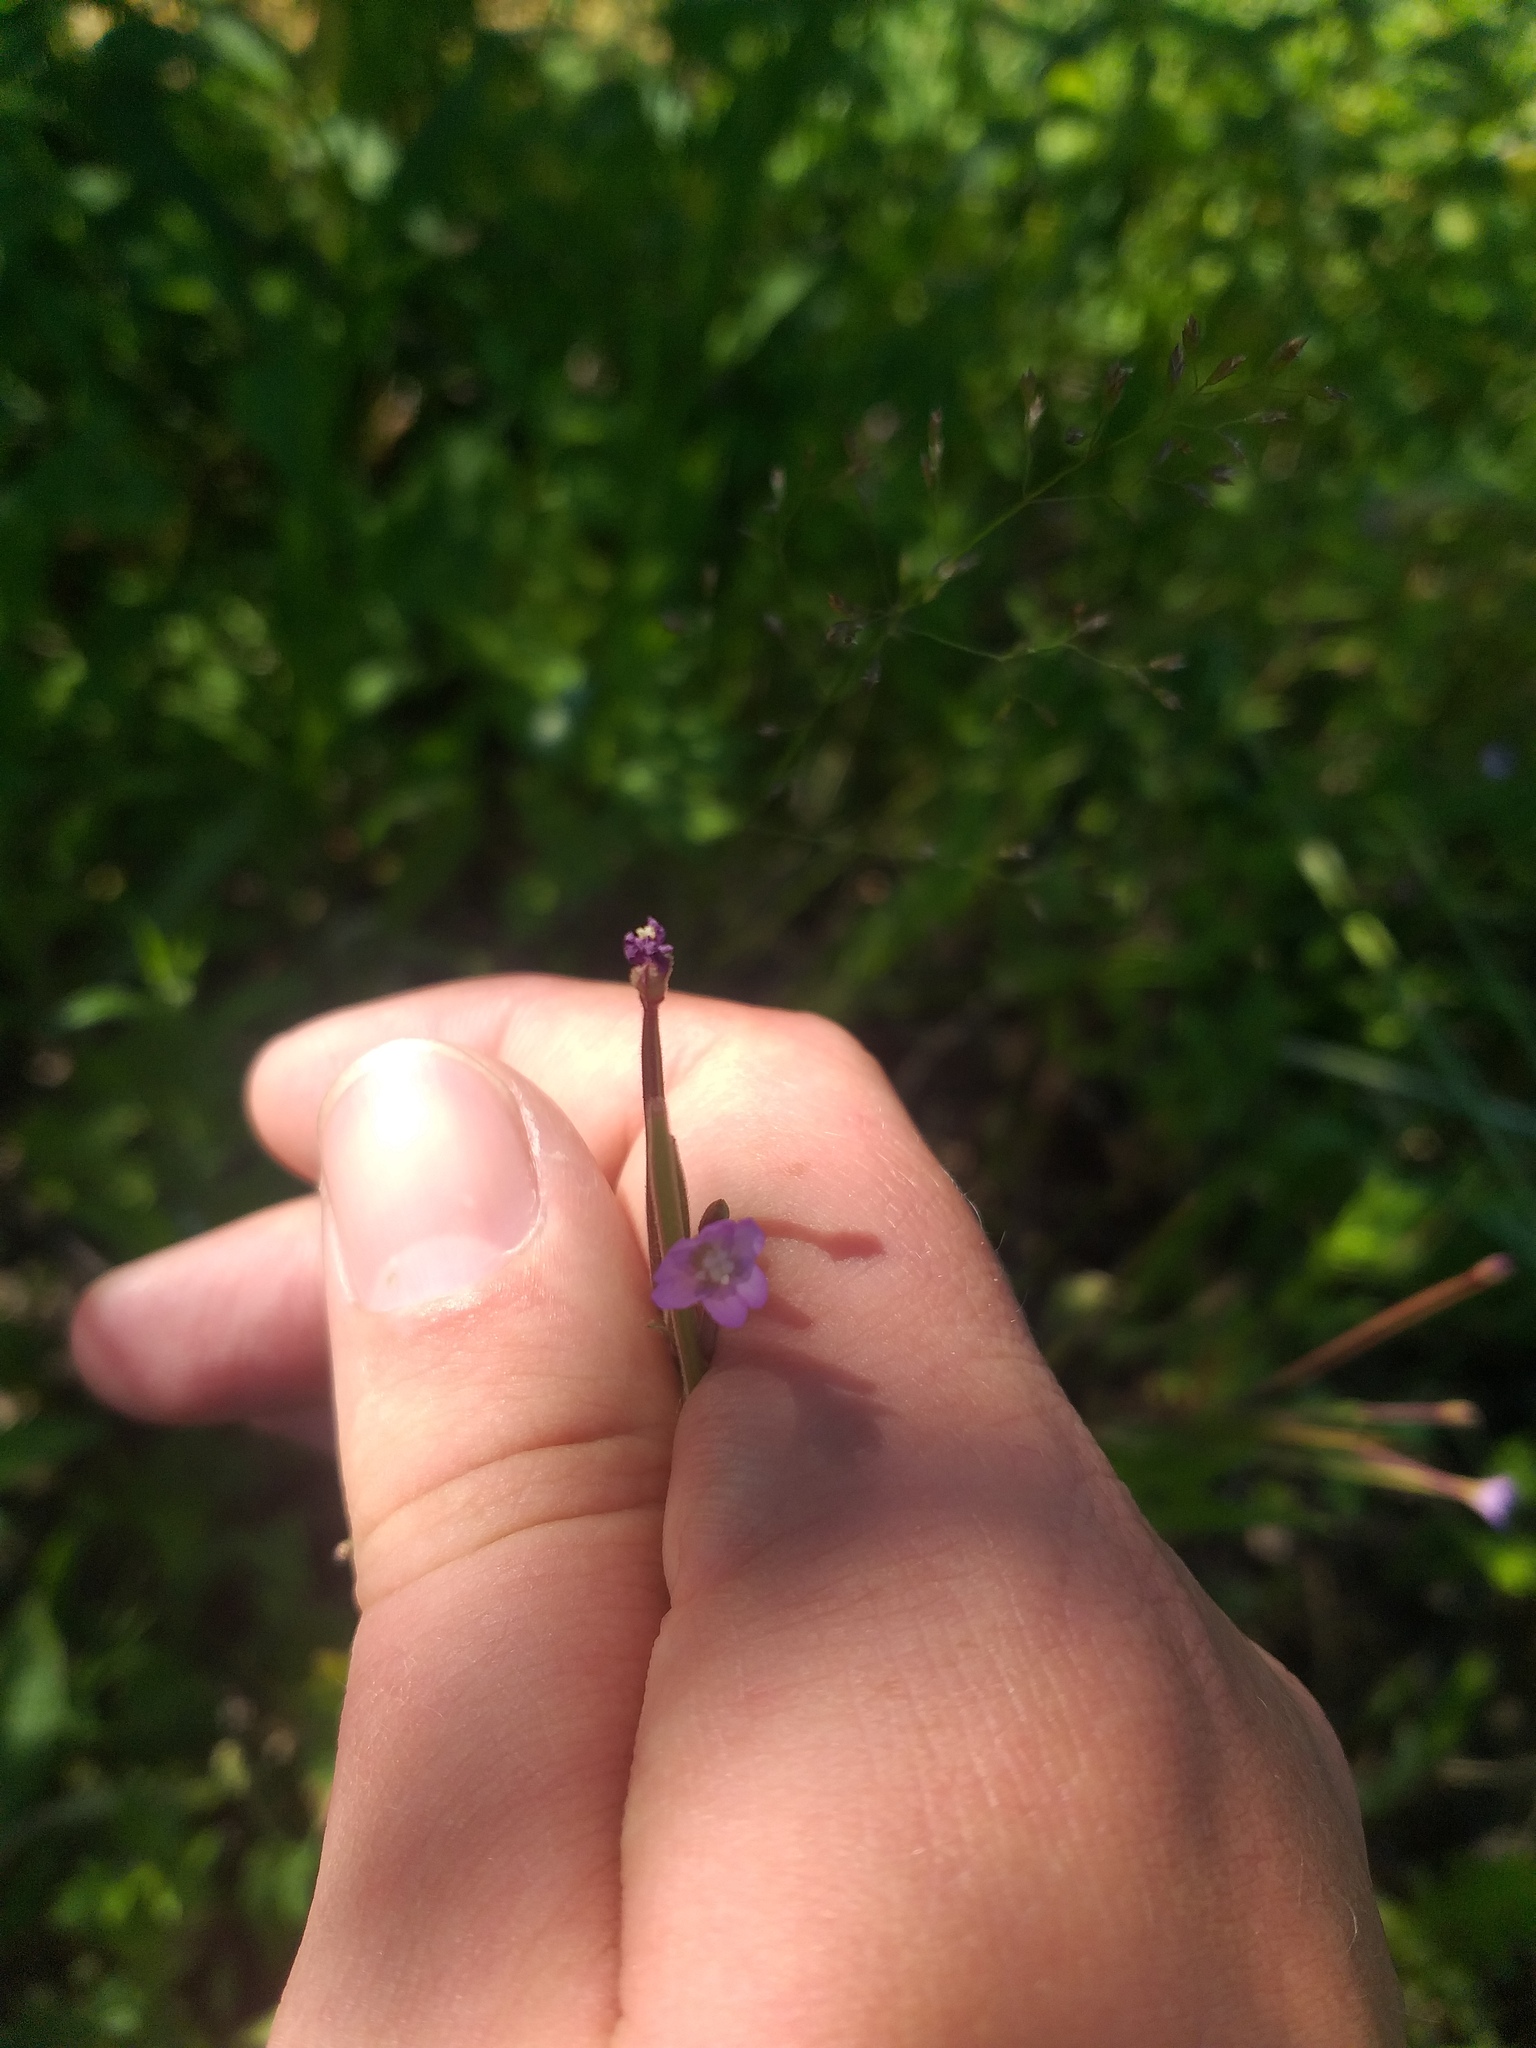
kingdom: Plantae
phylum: Tracheophyta
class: Magnoliopsida
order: Myrtales
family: Onagraceae
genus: Epilobium
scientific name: Epilobium montanum
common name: Broad-leaved willowherb
